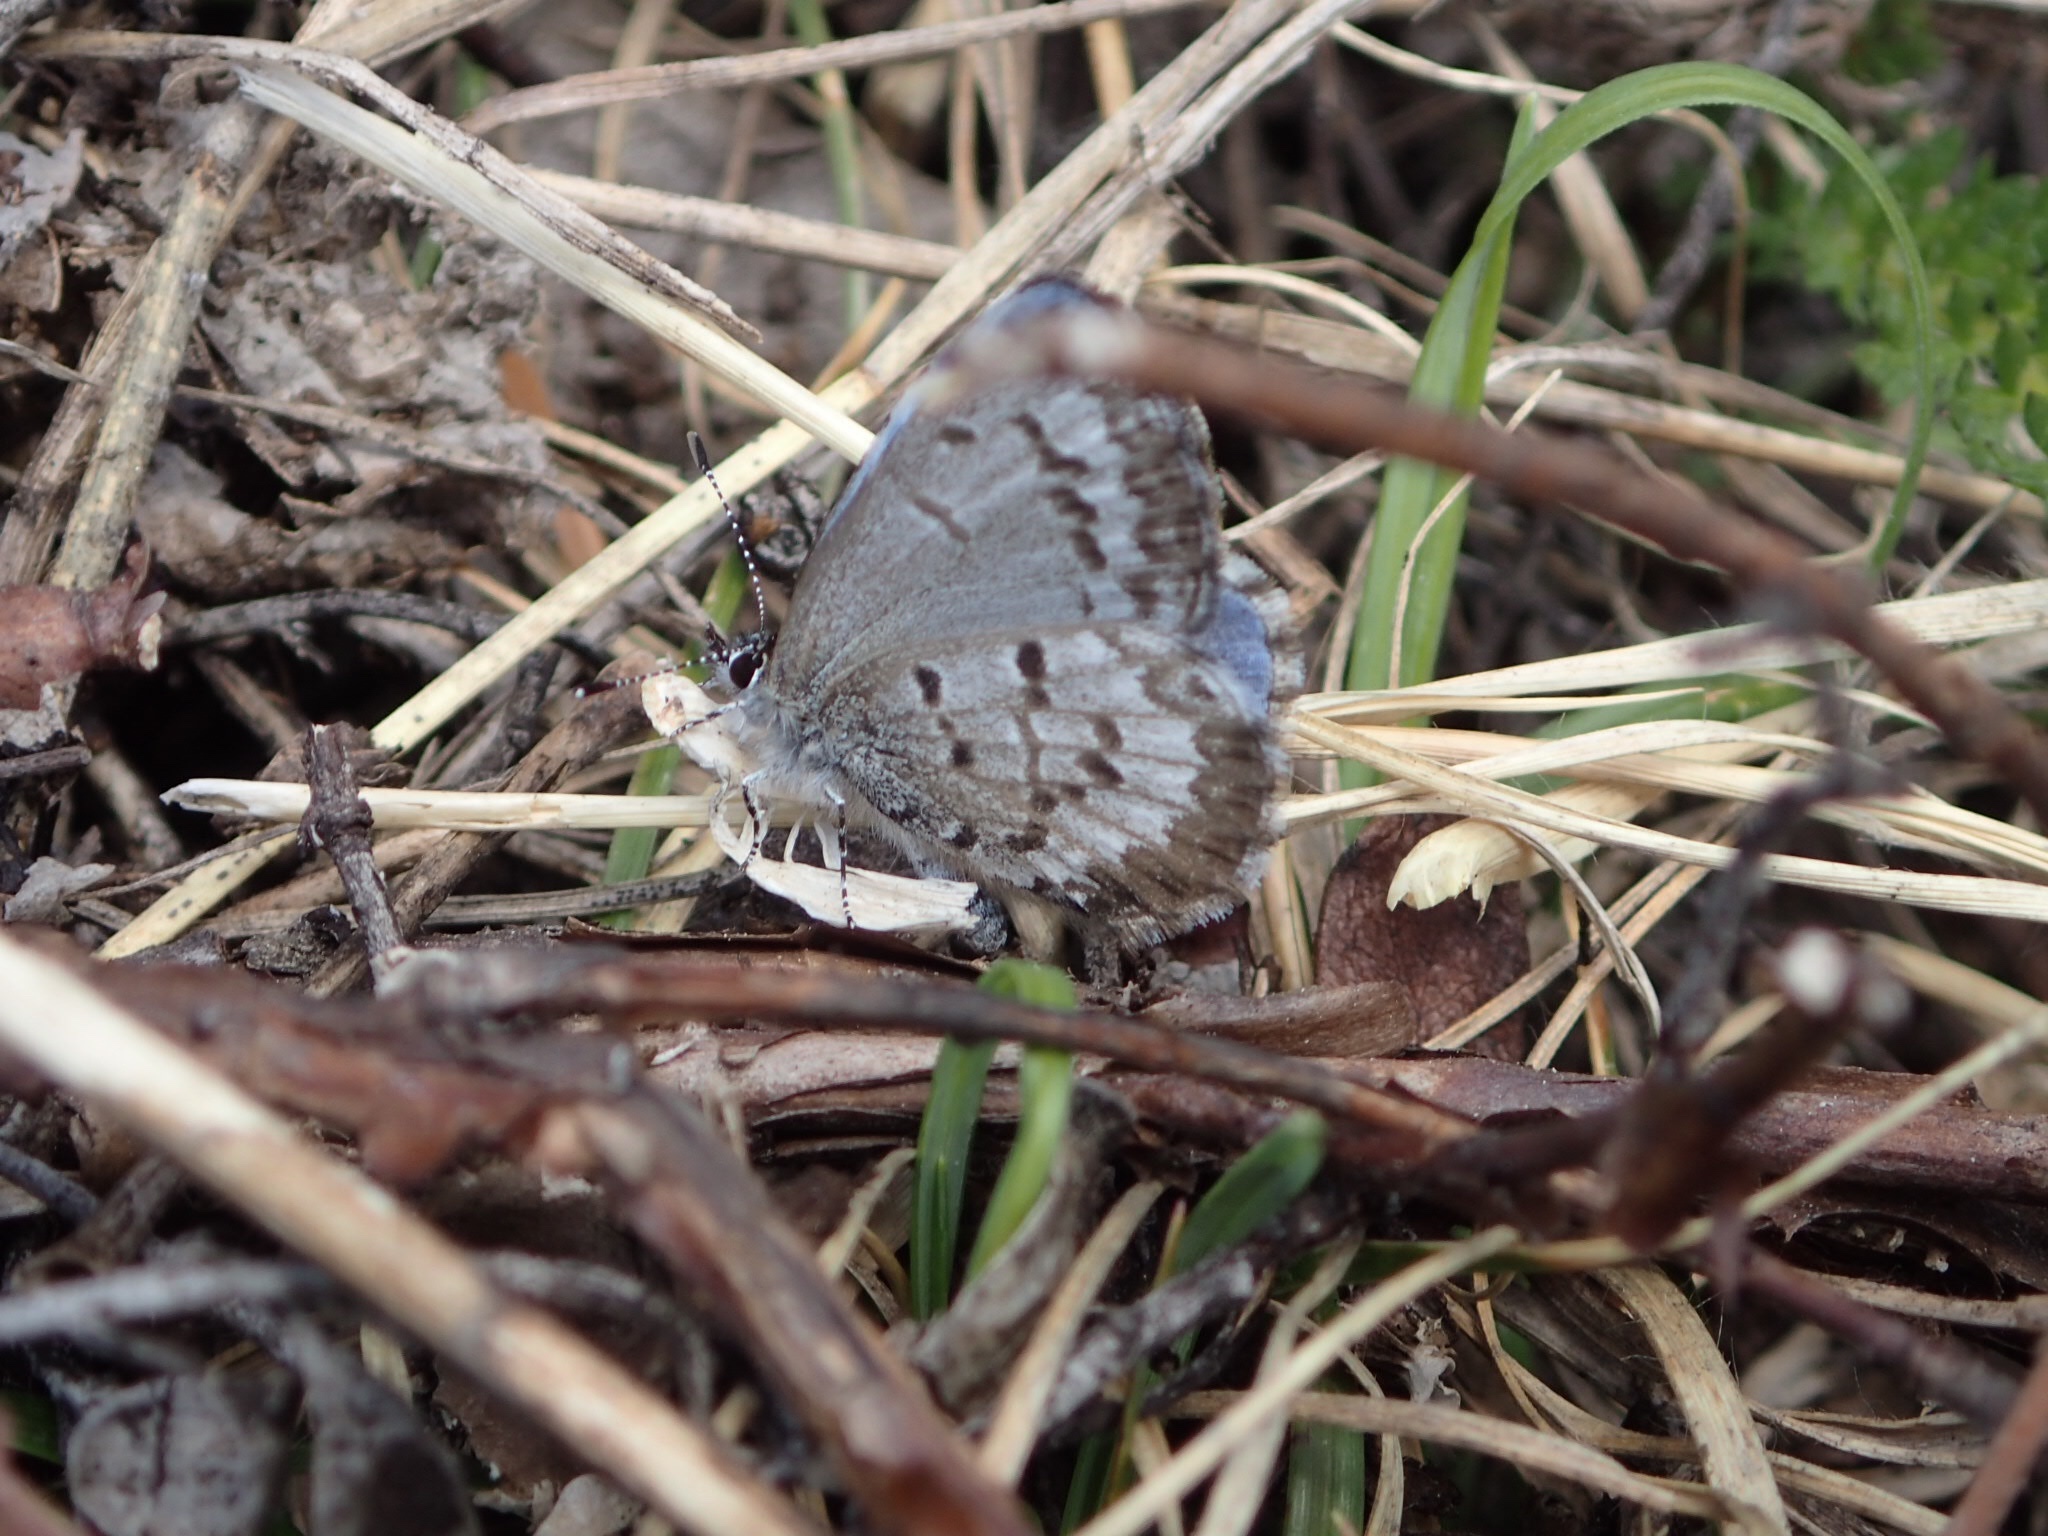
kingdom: Animalia
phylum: Arthropoda
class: Insecta
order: Lepidoptera
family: Lycaenidae
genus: Celastrina
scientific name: Celastrina lucia
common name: Lucia azure
